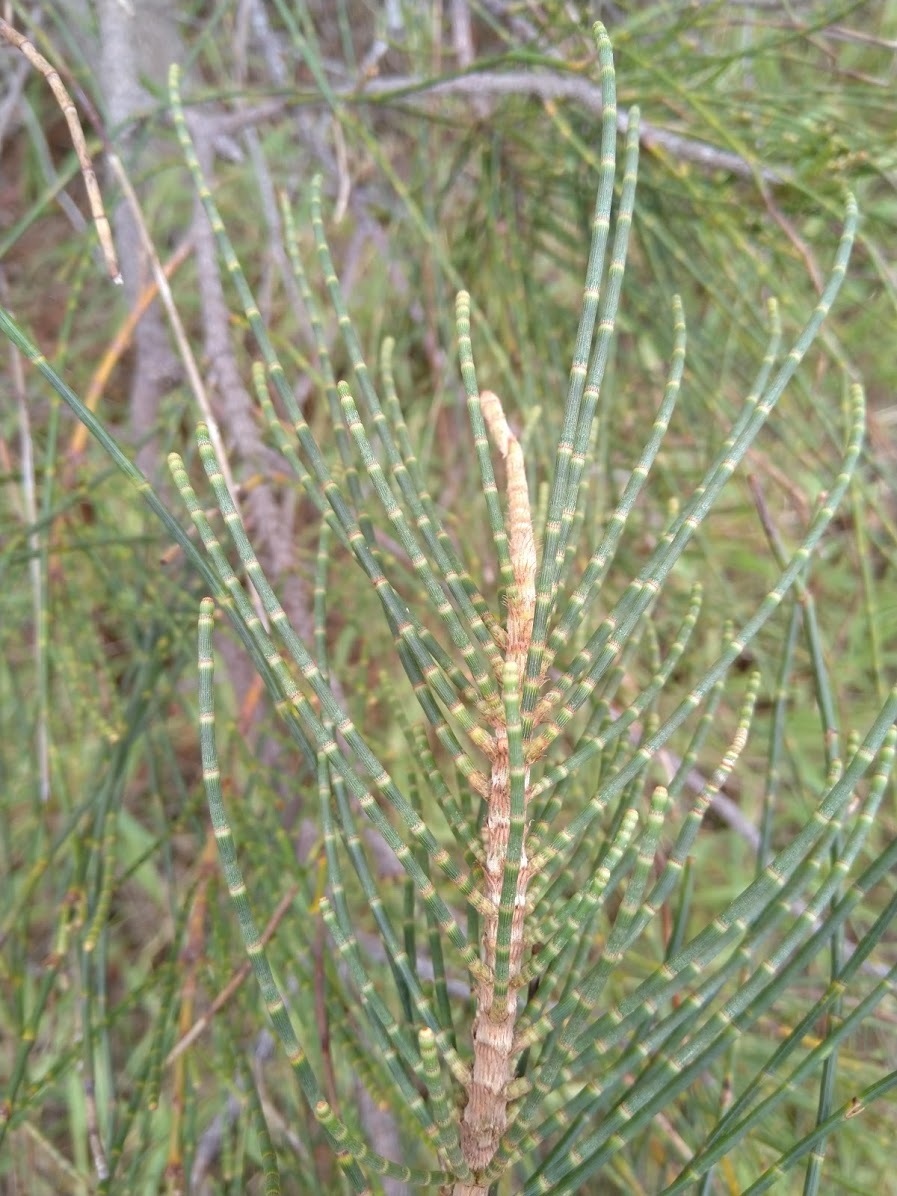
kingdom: Plantae
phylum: Tracheophyta
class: Magnoliopsida
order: Fagales
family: Casuarinaceae
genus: Casuarina
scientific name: Casuarina glauca
